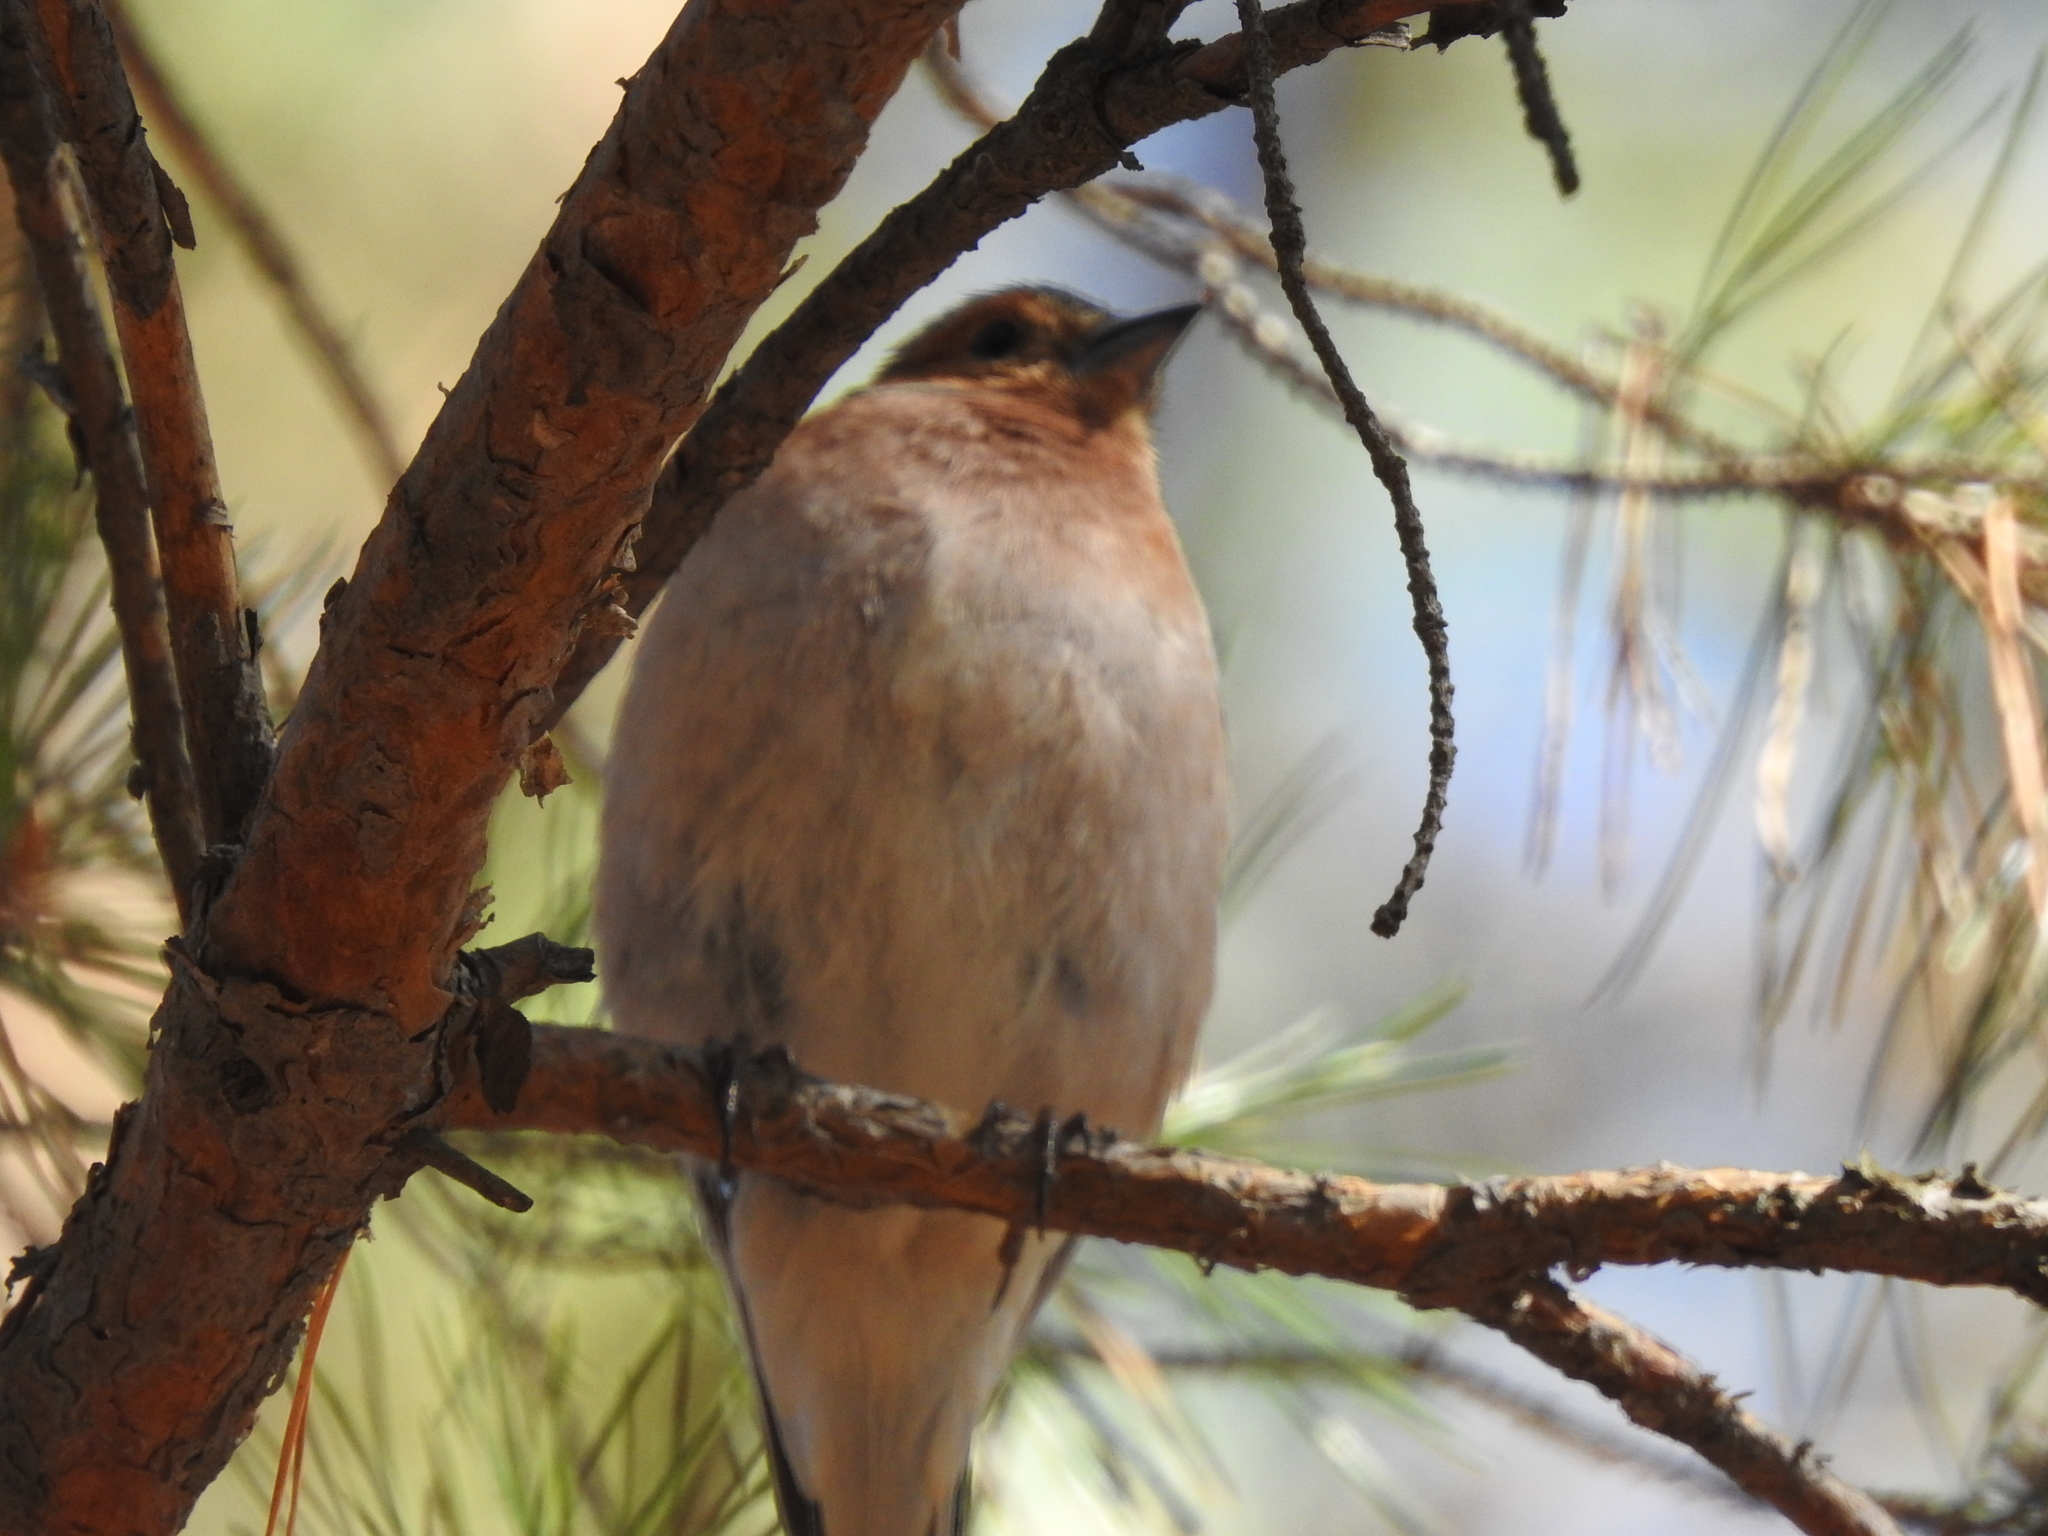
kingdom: Animalia
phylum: Chordata
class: Aves
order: Passeriformes
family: Fringillidae
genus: Fringilla
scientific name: Fringilla coelebs
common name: Common chaffinch
